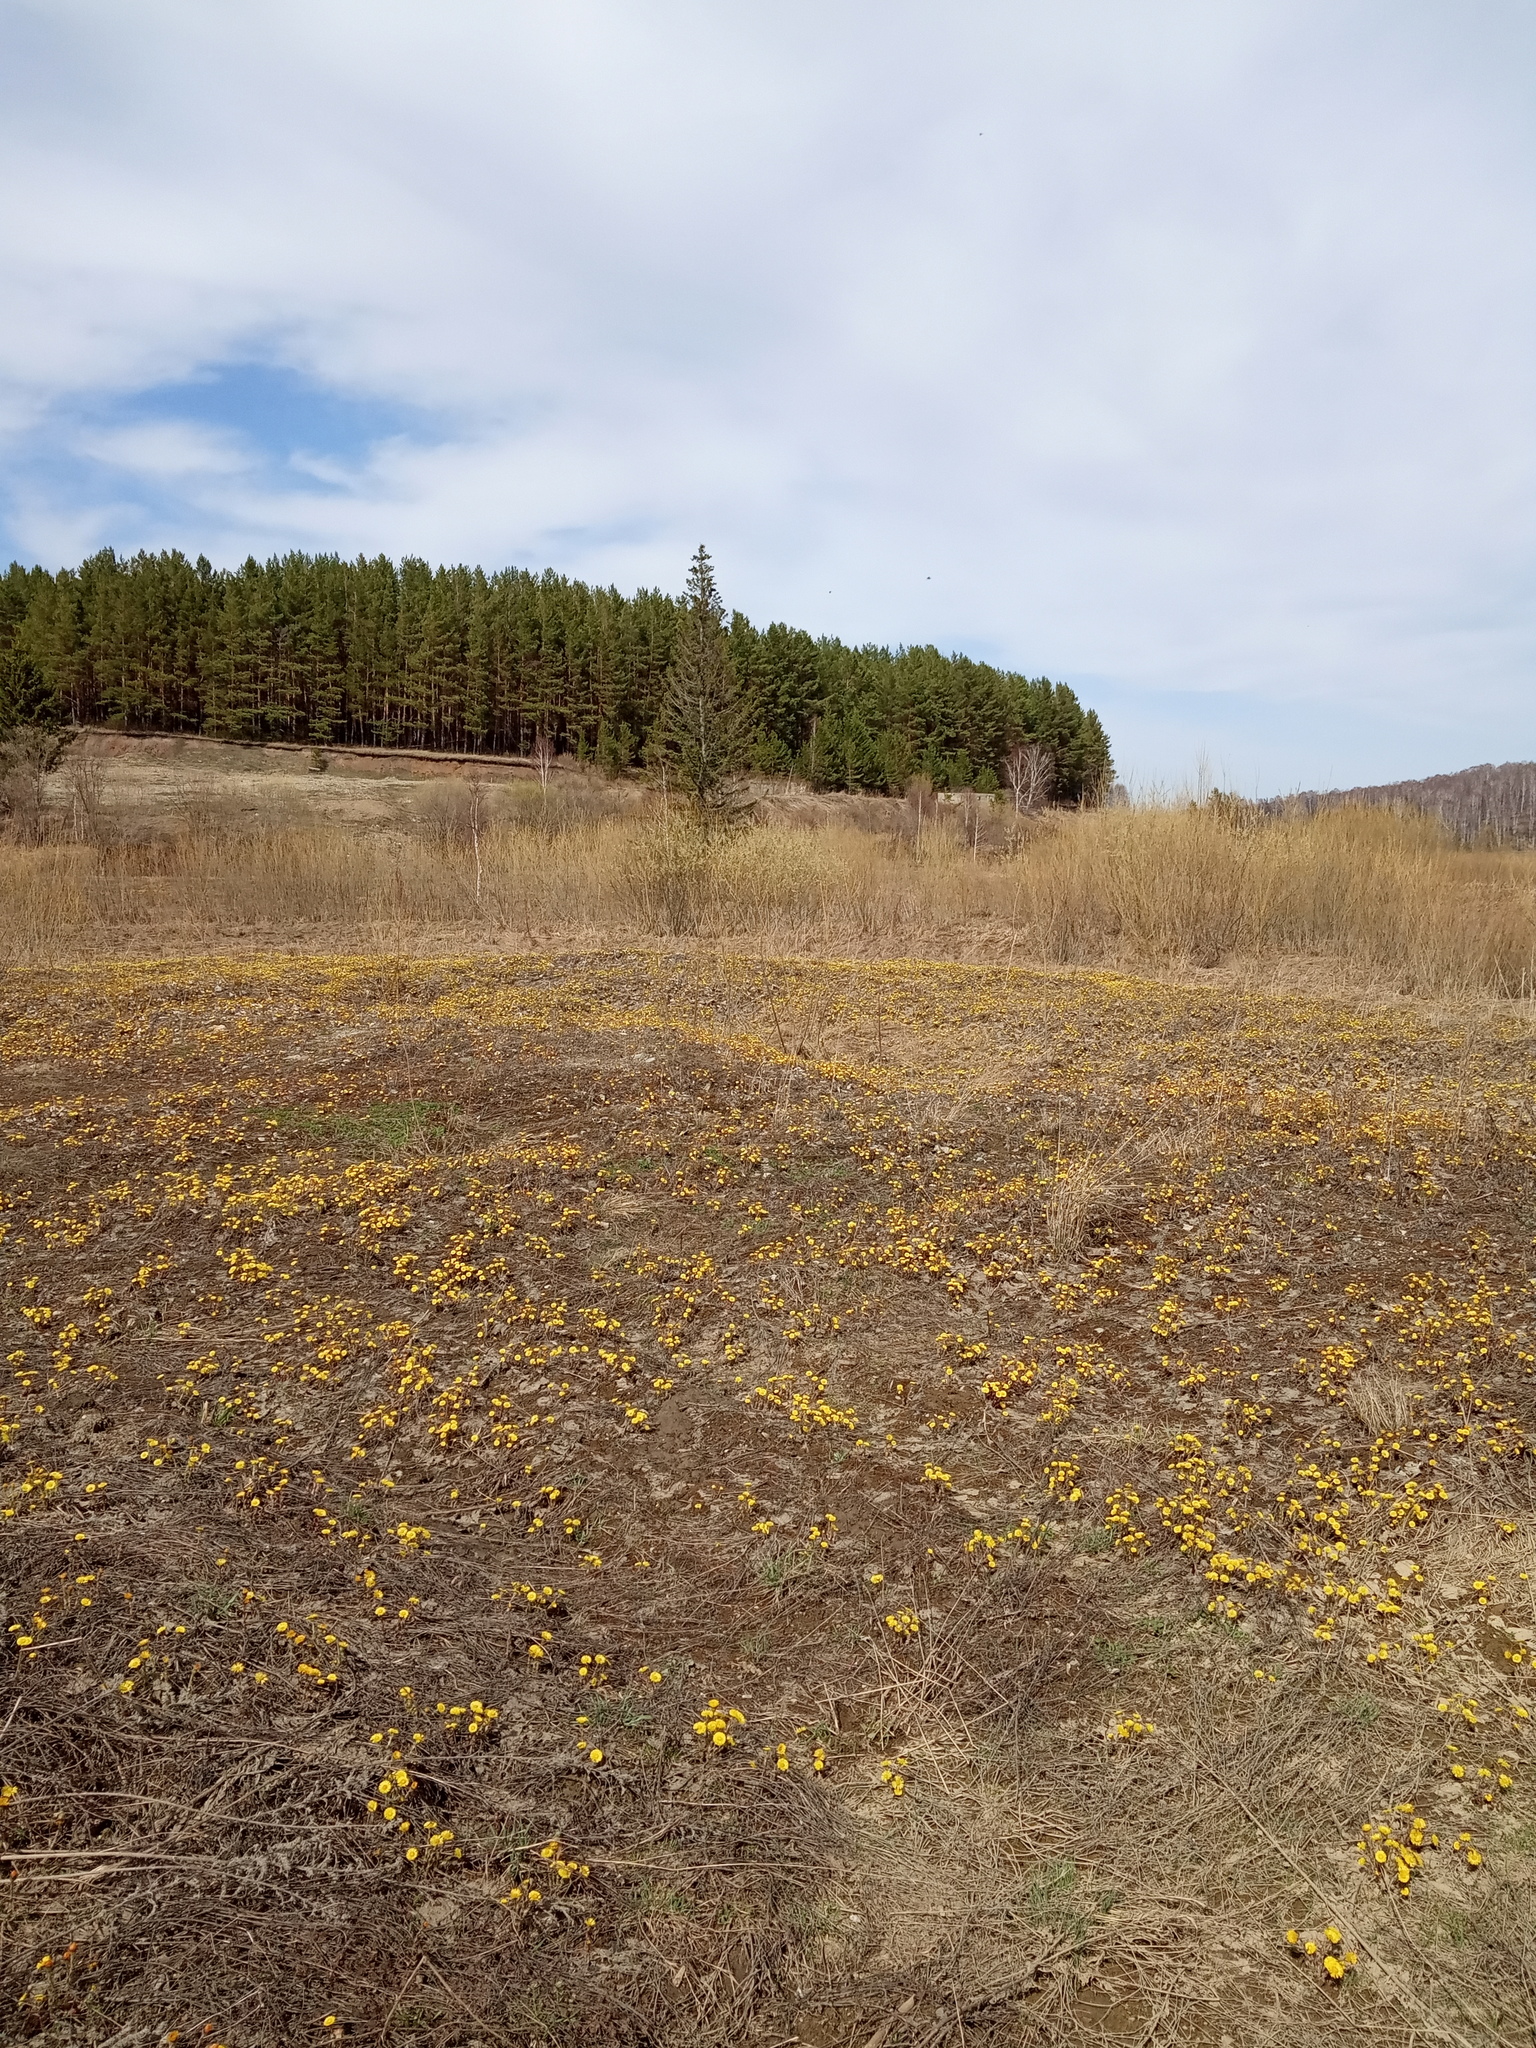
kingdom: Plantae
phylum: Tracheophyta
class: Pinopsida
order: Pinales
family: Pinaceae
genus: Picea
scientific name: Picea obovata
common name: Siberian spruce
